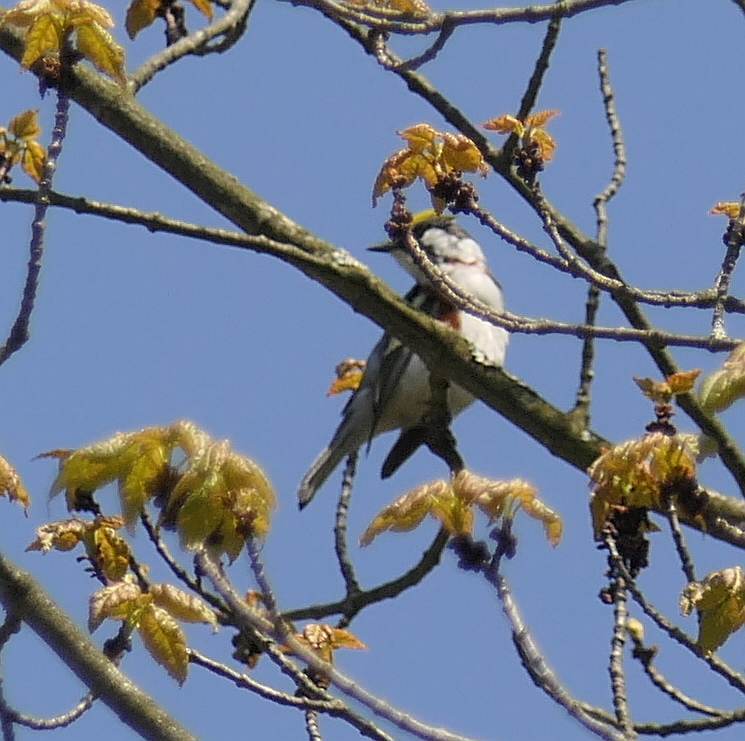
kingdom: Animalia
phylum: Chordata
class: Aves
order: Passeriformes
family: Parulidae
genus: Setophaga
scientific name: Setophaga pensylvanica
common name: Chestnut-sided warbler
